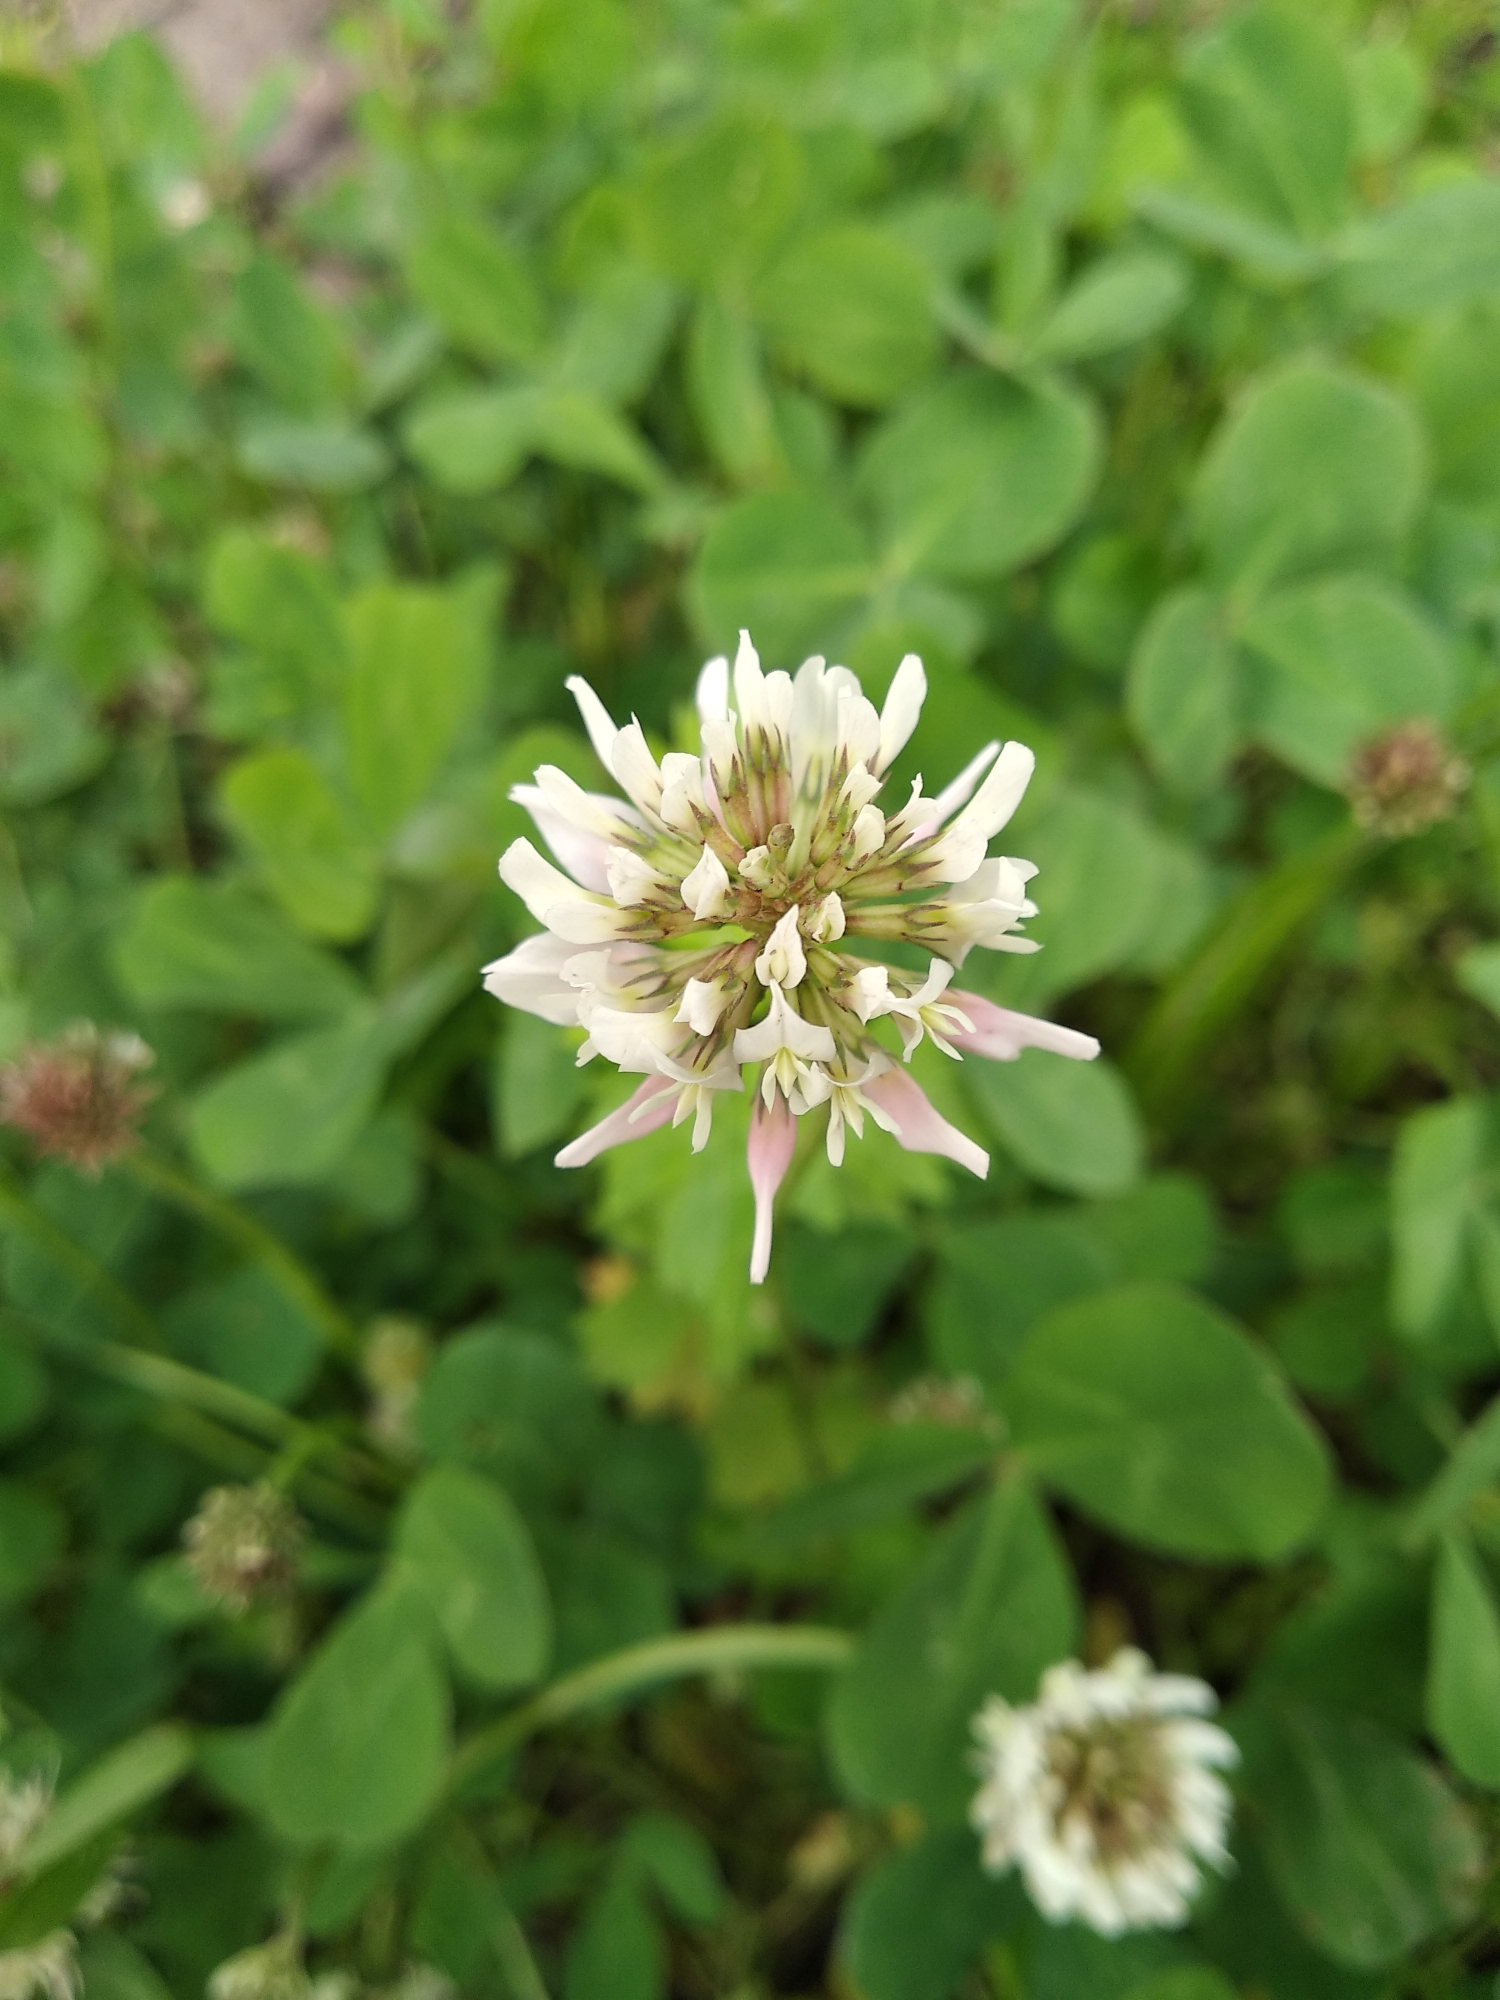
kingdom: Plantae
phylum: Tracheophyta
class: Magnoliopsida
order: Fabales
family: Fabaceae
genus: Trifolium
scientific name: Trifolium repens
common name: White clover
